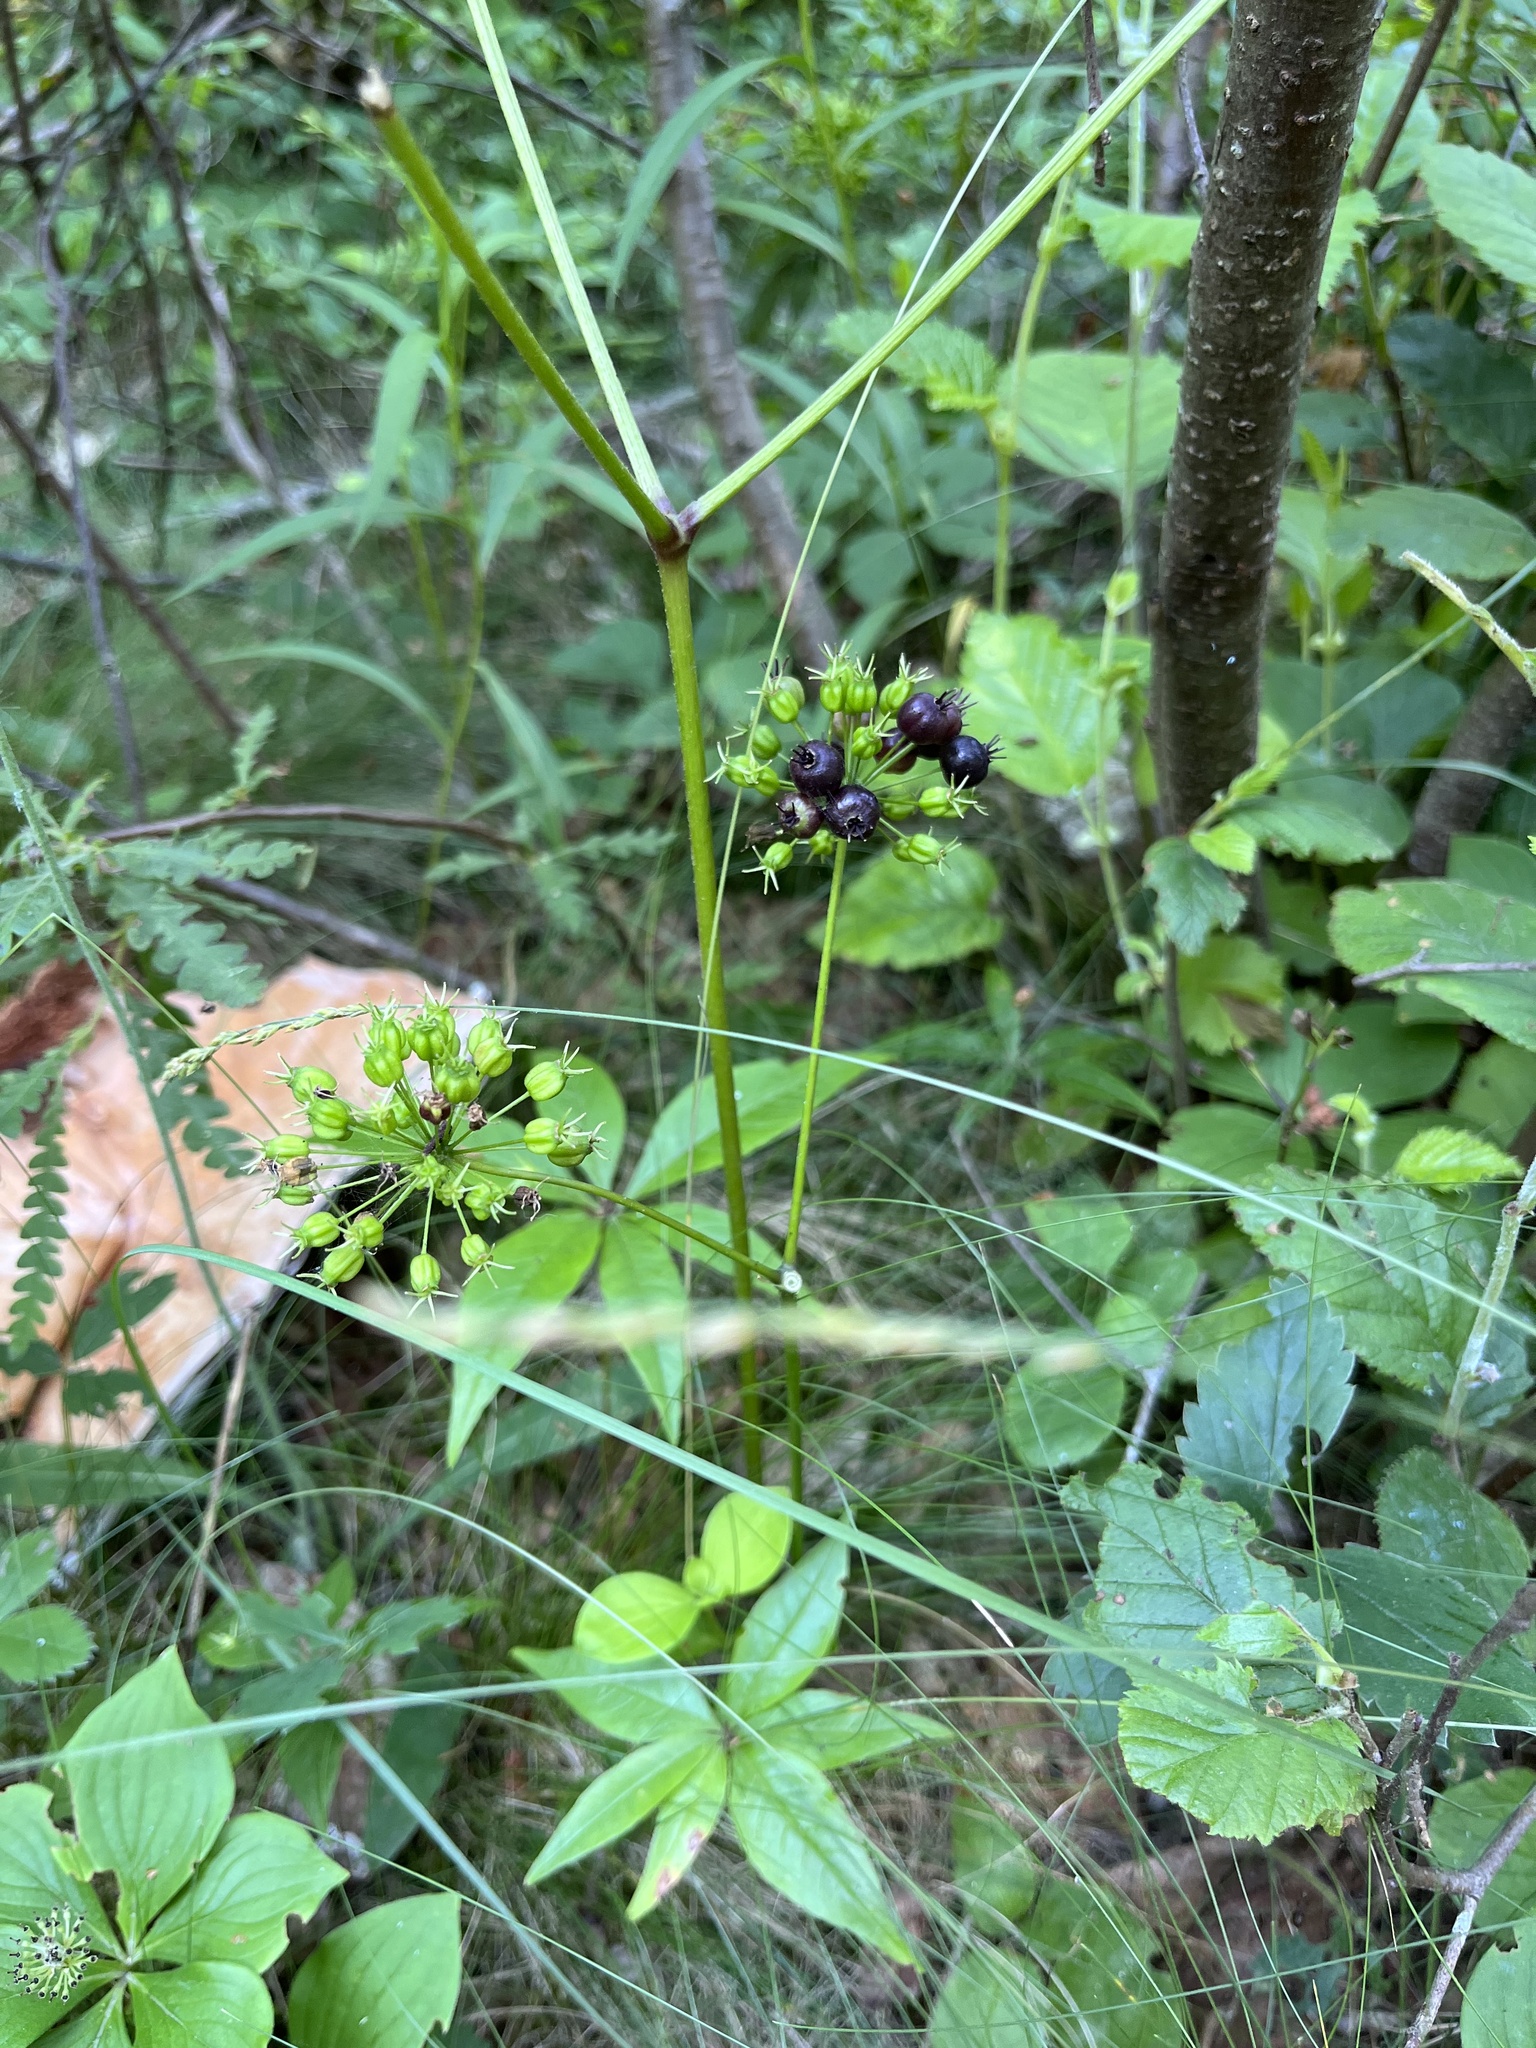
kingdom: Plantae
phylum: Tracheophyta
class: Magnoliopsida
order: Apiales
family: Araliaceae
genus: Aralia
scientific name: Aralia nudicaulis
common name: Wild sarsaparilla
